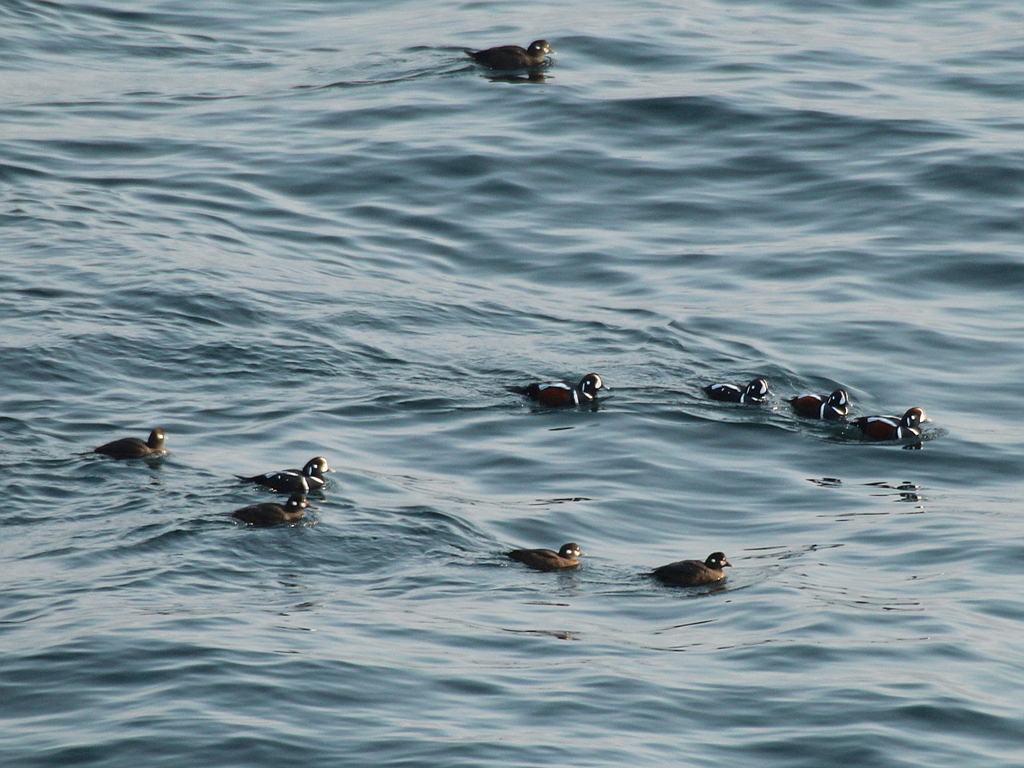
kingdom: Animalia
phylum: Chordata
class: Aves
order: Anseriformes
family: Anatidae
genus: Histrionicus
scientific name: Histrionicus histrionicus
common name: Harlequin duck
